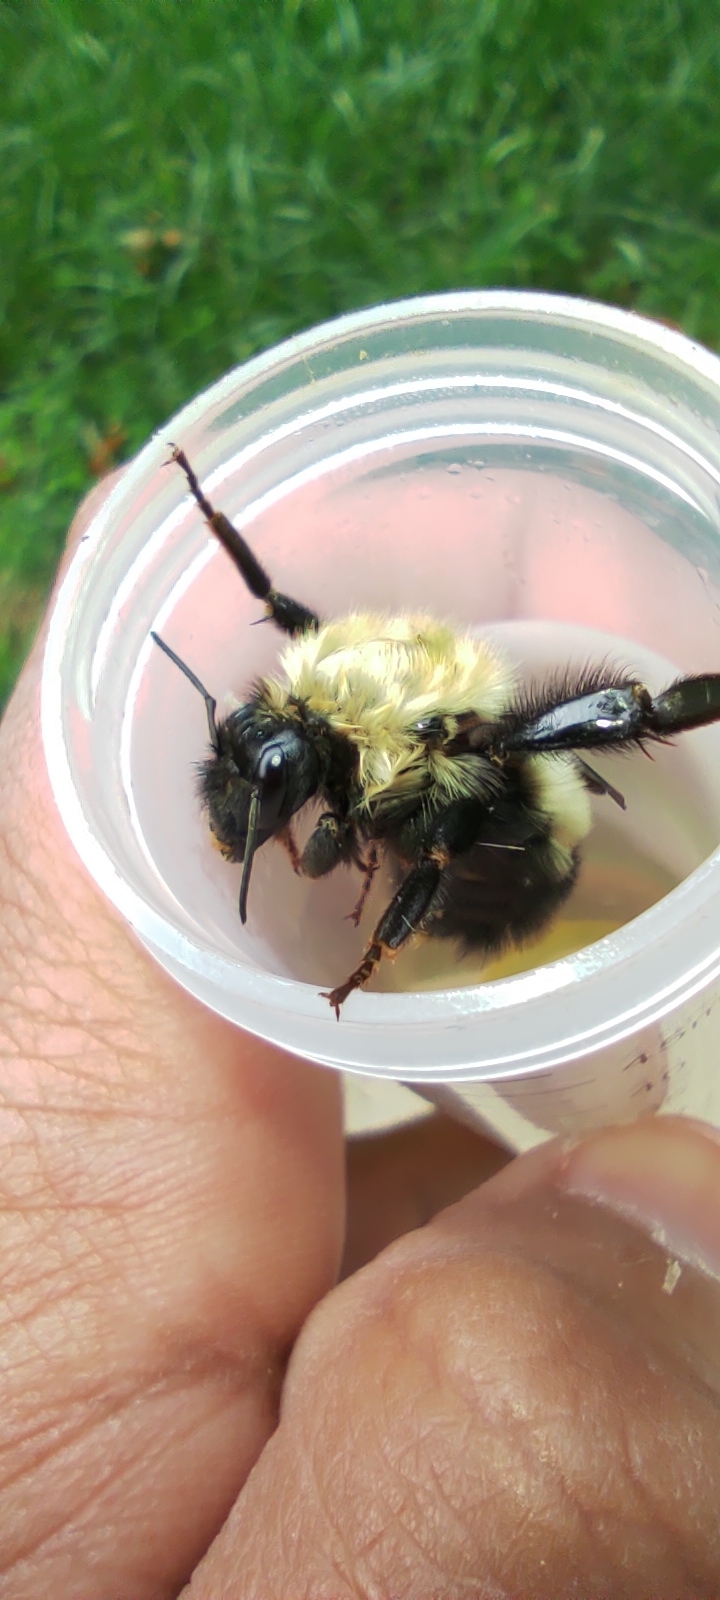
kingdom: Animalia
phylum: Arthropoda
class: Insecta
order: Hymenoptera
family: Apidae
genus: Bombus
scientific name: Bombus perplexus
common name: Confusing bumble bee
